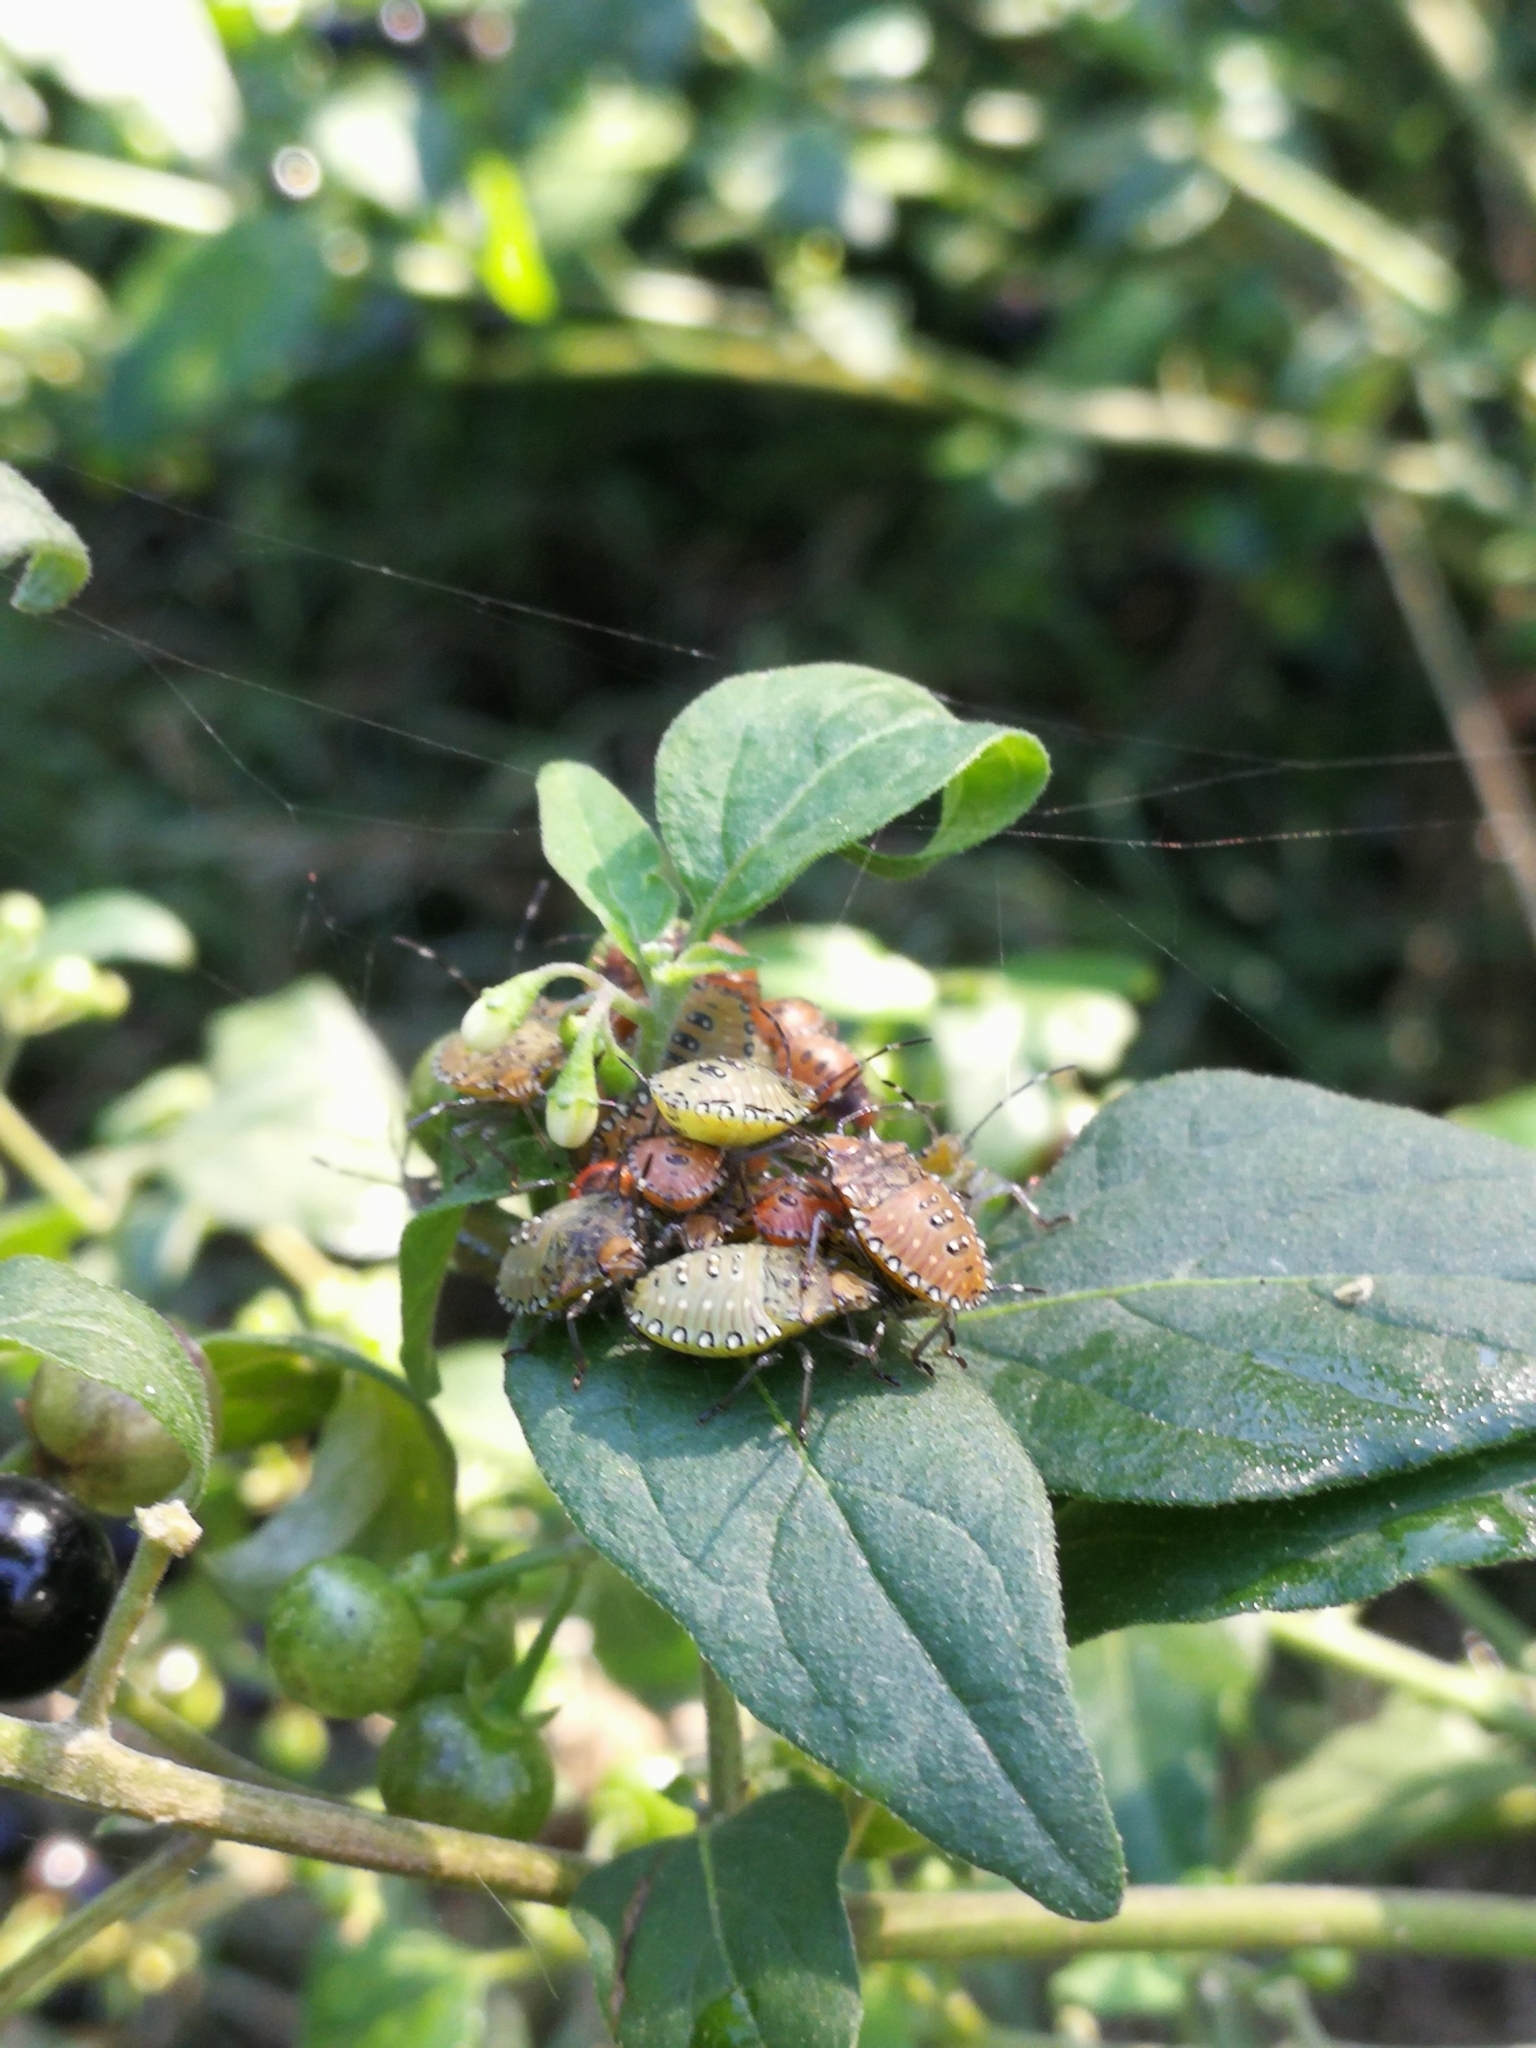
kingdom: Animalia
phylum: Arthropoda
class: Insecta
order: Hemiptera
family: Pentatomidae
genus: Arvelius
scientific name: Arvelius albopunctatus
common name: Tomato stink bug
